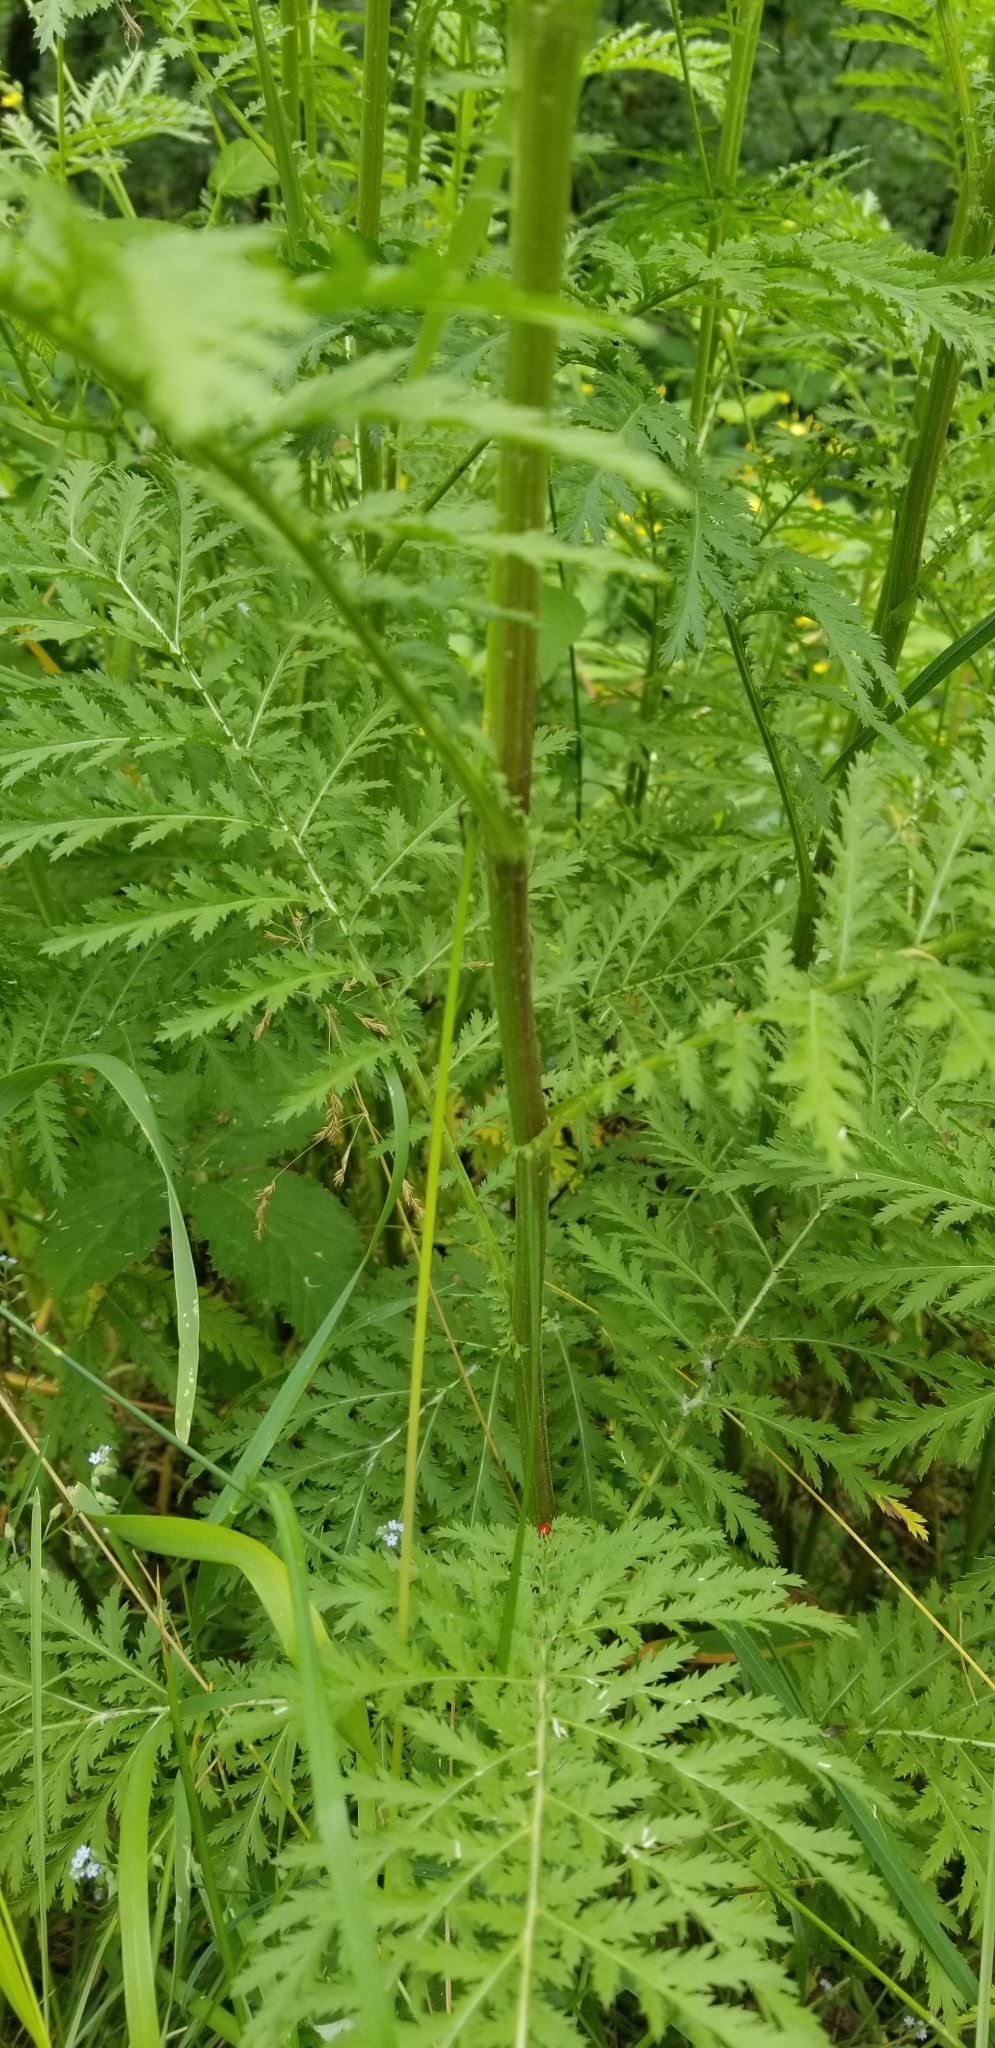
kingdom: Plantae
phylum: Tracheophyta
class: Magnoliopsida
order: Asterales
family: Asteraceae
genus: Tanacetum
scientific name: Tanacetum vulgare
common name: Common tansy
